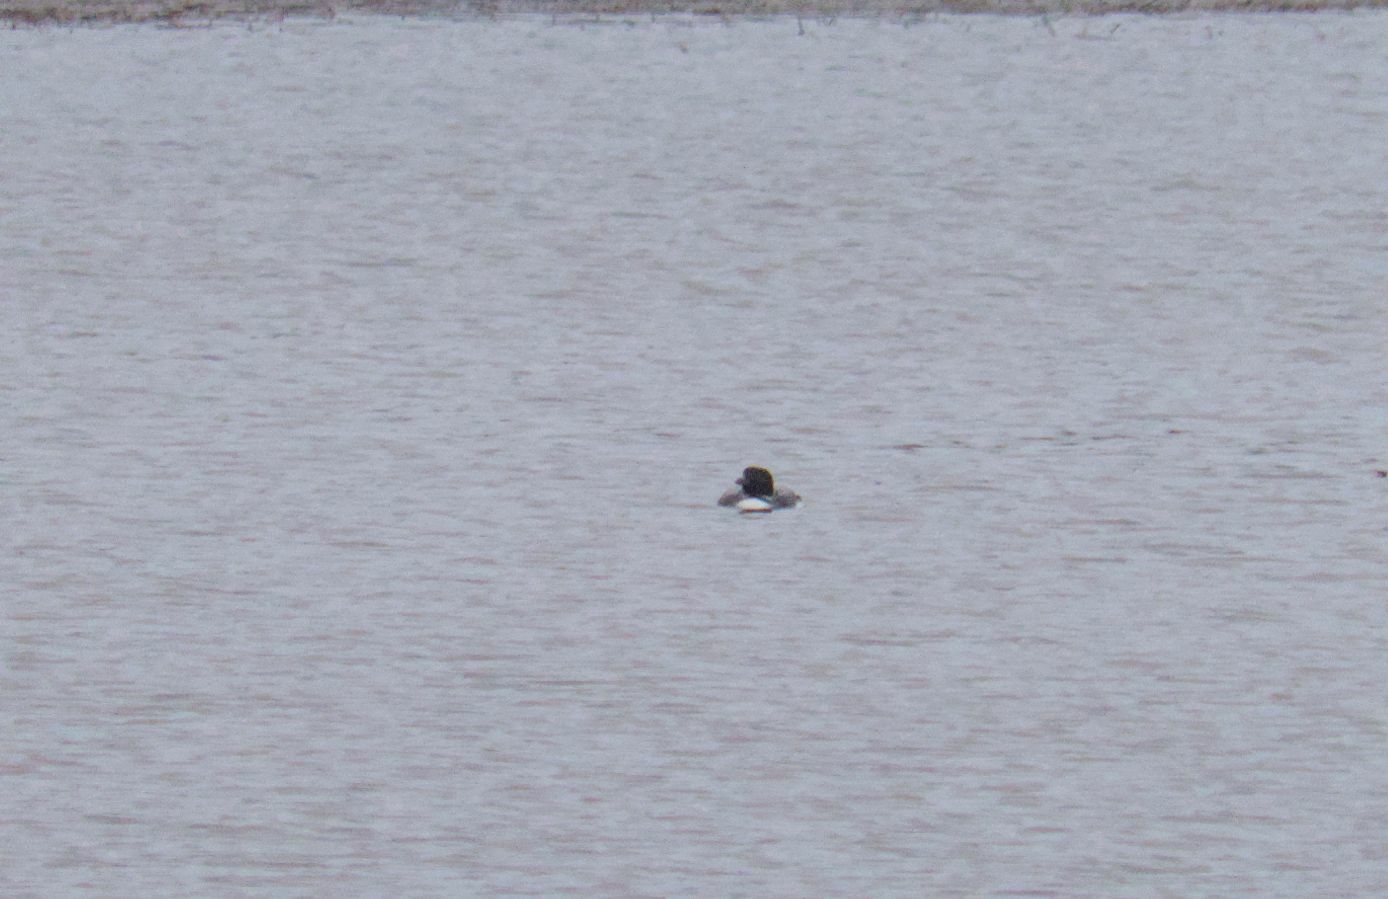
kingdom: Animalia
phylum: Chordata
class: Aves
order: Gaviiformes
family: Gaviidae
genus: Gavia
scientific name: Gavia immer
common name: Common loon
